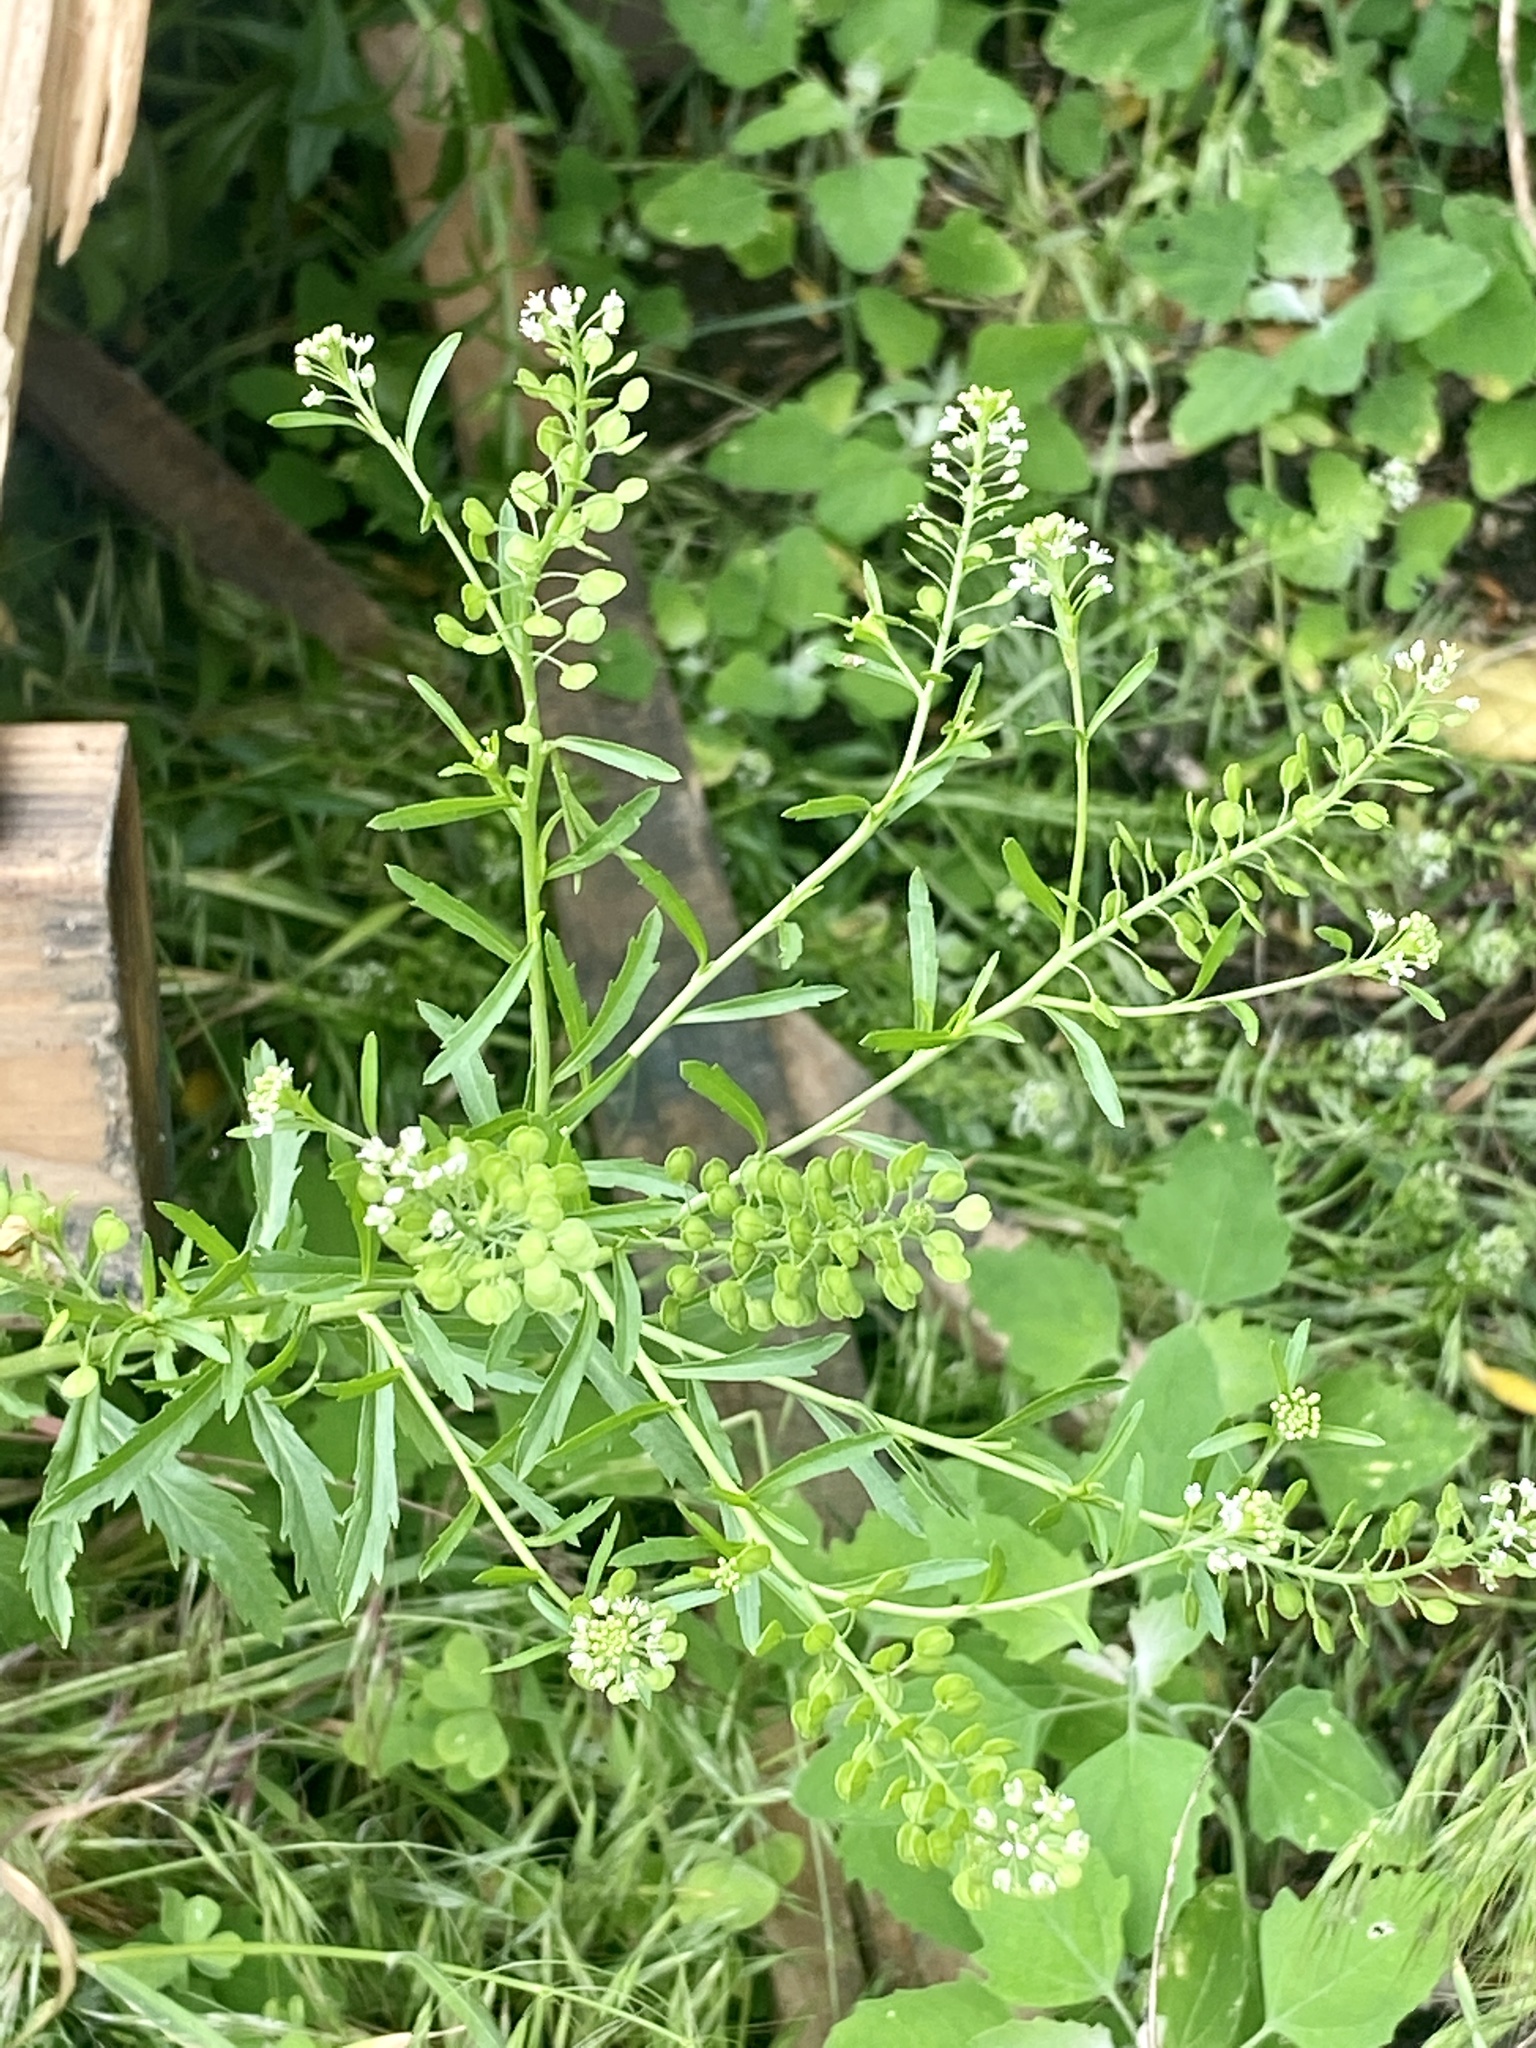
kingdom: Plantae
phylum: Tracheophyta
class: Magnoliopsida
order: Brassicales
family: Brassicaceae
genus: Lepidium
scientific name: Lepidium virginicum
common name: Least pepperwort
